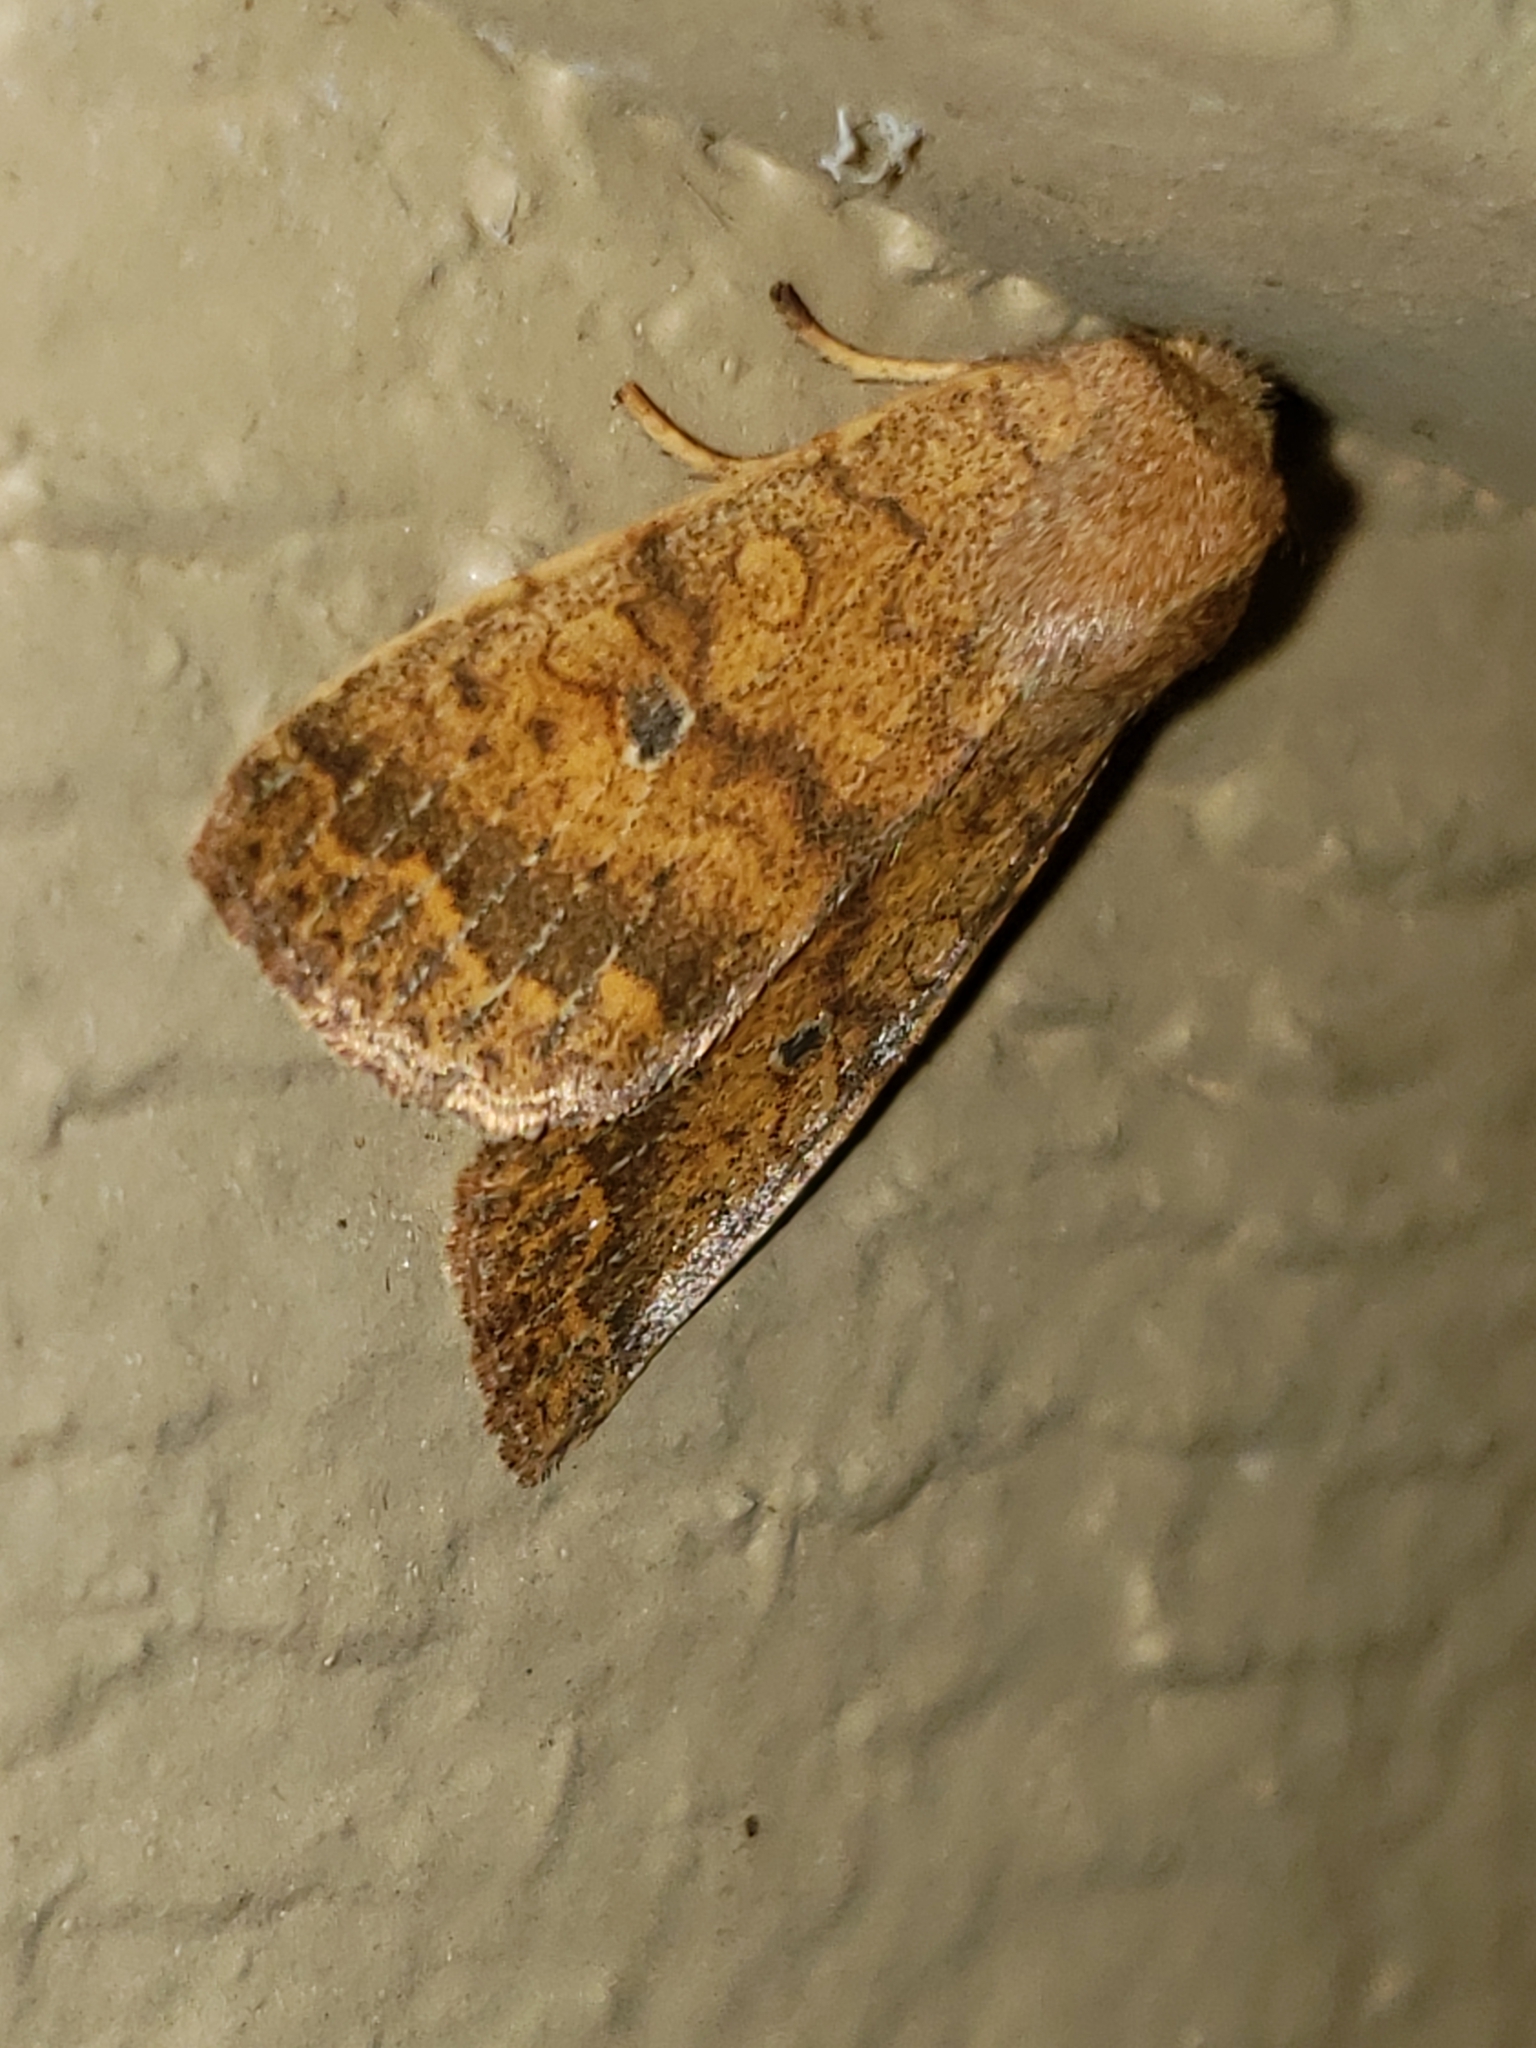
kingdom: Animalia
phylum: Arthropoda
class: Insecta
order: Lepidoptera
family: Noctuidae
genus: Agrochola
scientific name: Agrochola bicolorago
